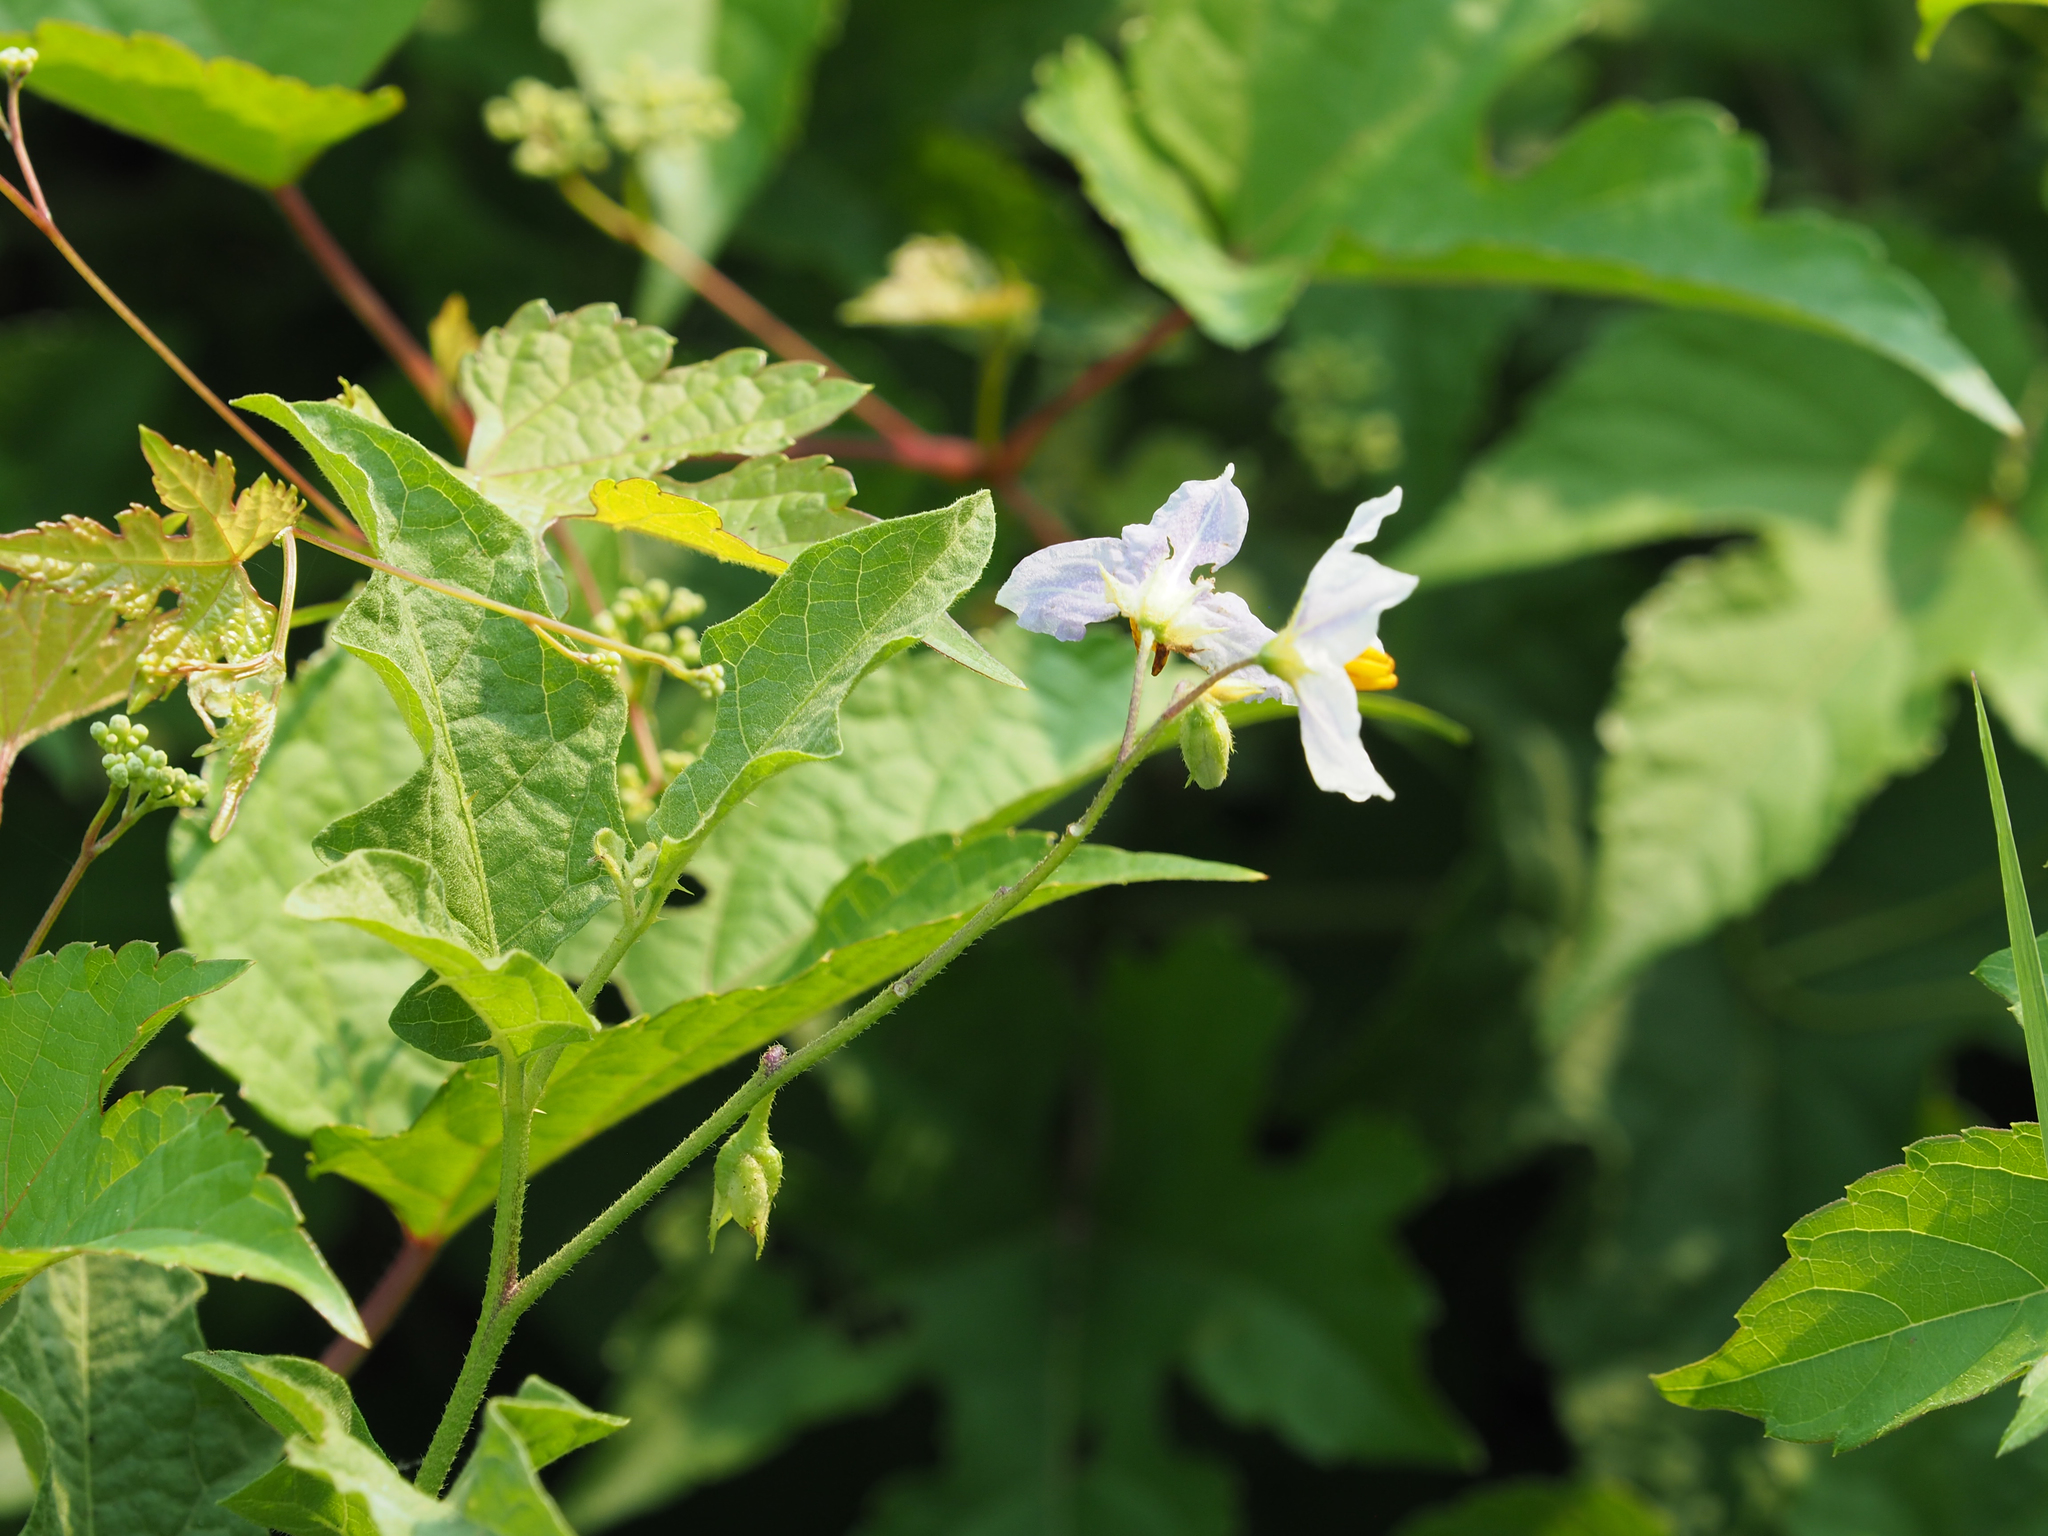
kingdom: Plantae
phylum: Tracheophyta
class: Magnoliopsida
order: Solanales
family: Solanaceae
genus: Solanum
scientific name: Solanum carolinense
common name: Horse-nettle
